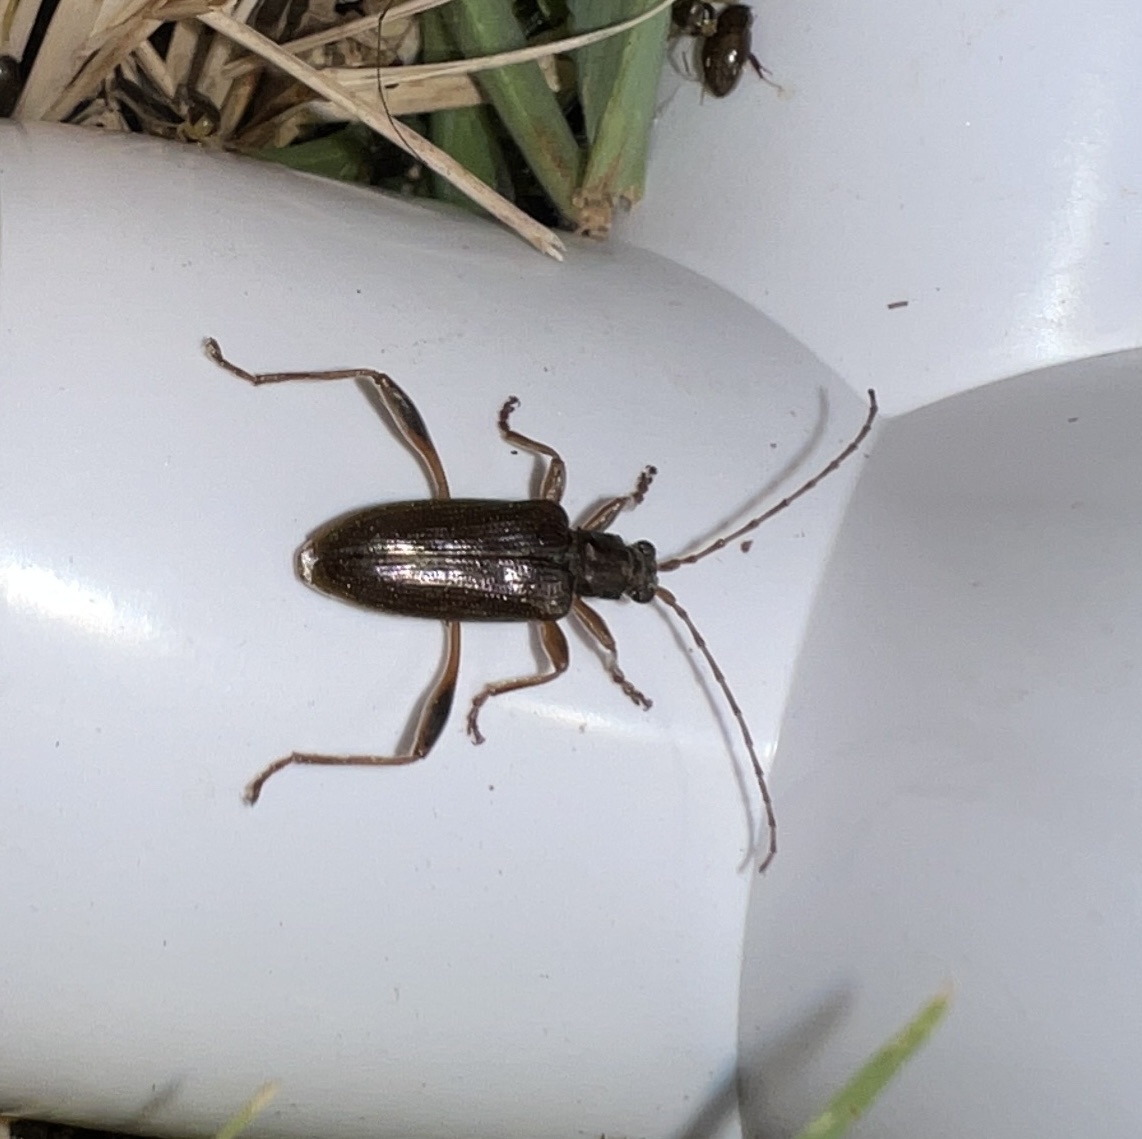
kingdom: Animalia
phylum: Arthropoda
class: Insecta
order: Coleoptera
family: Chrysomelidae
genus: Donacia
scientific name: Donacia hypoleuca
